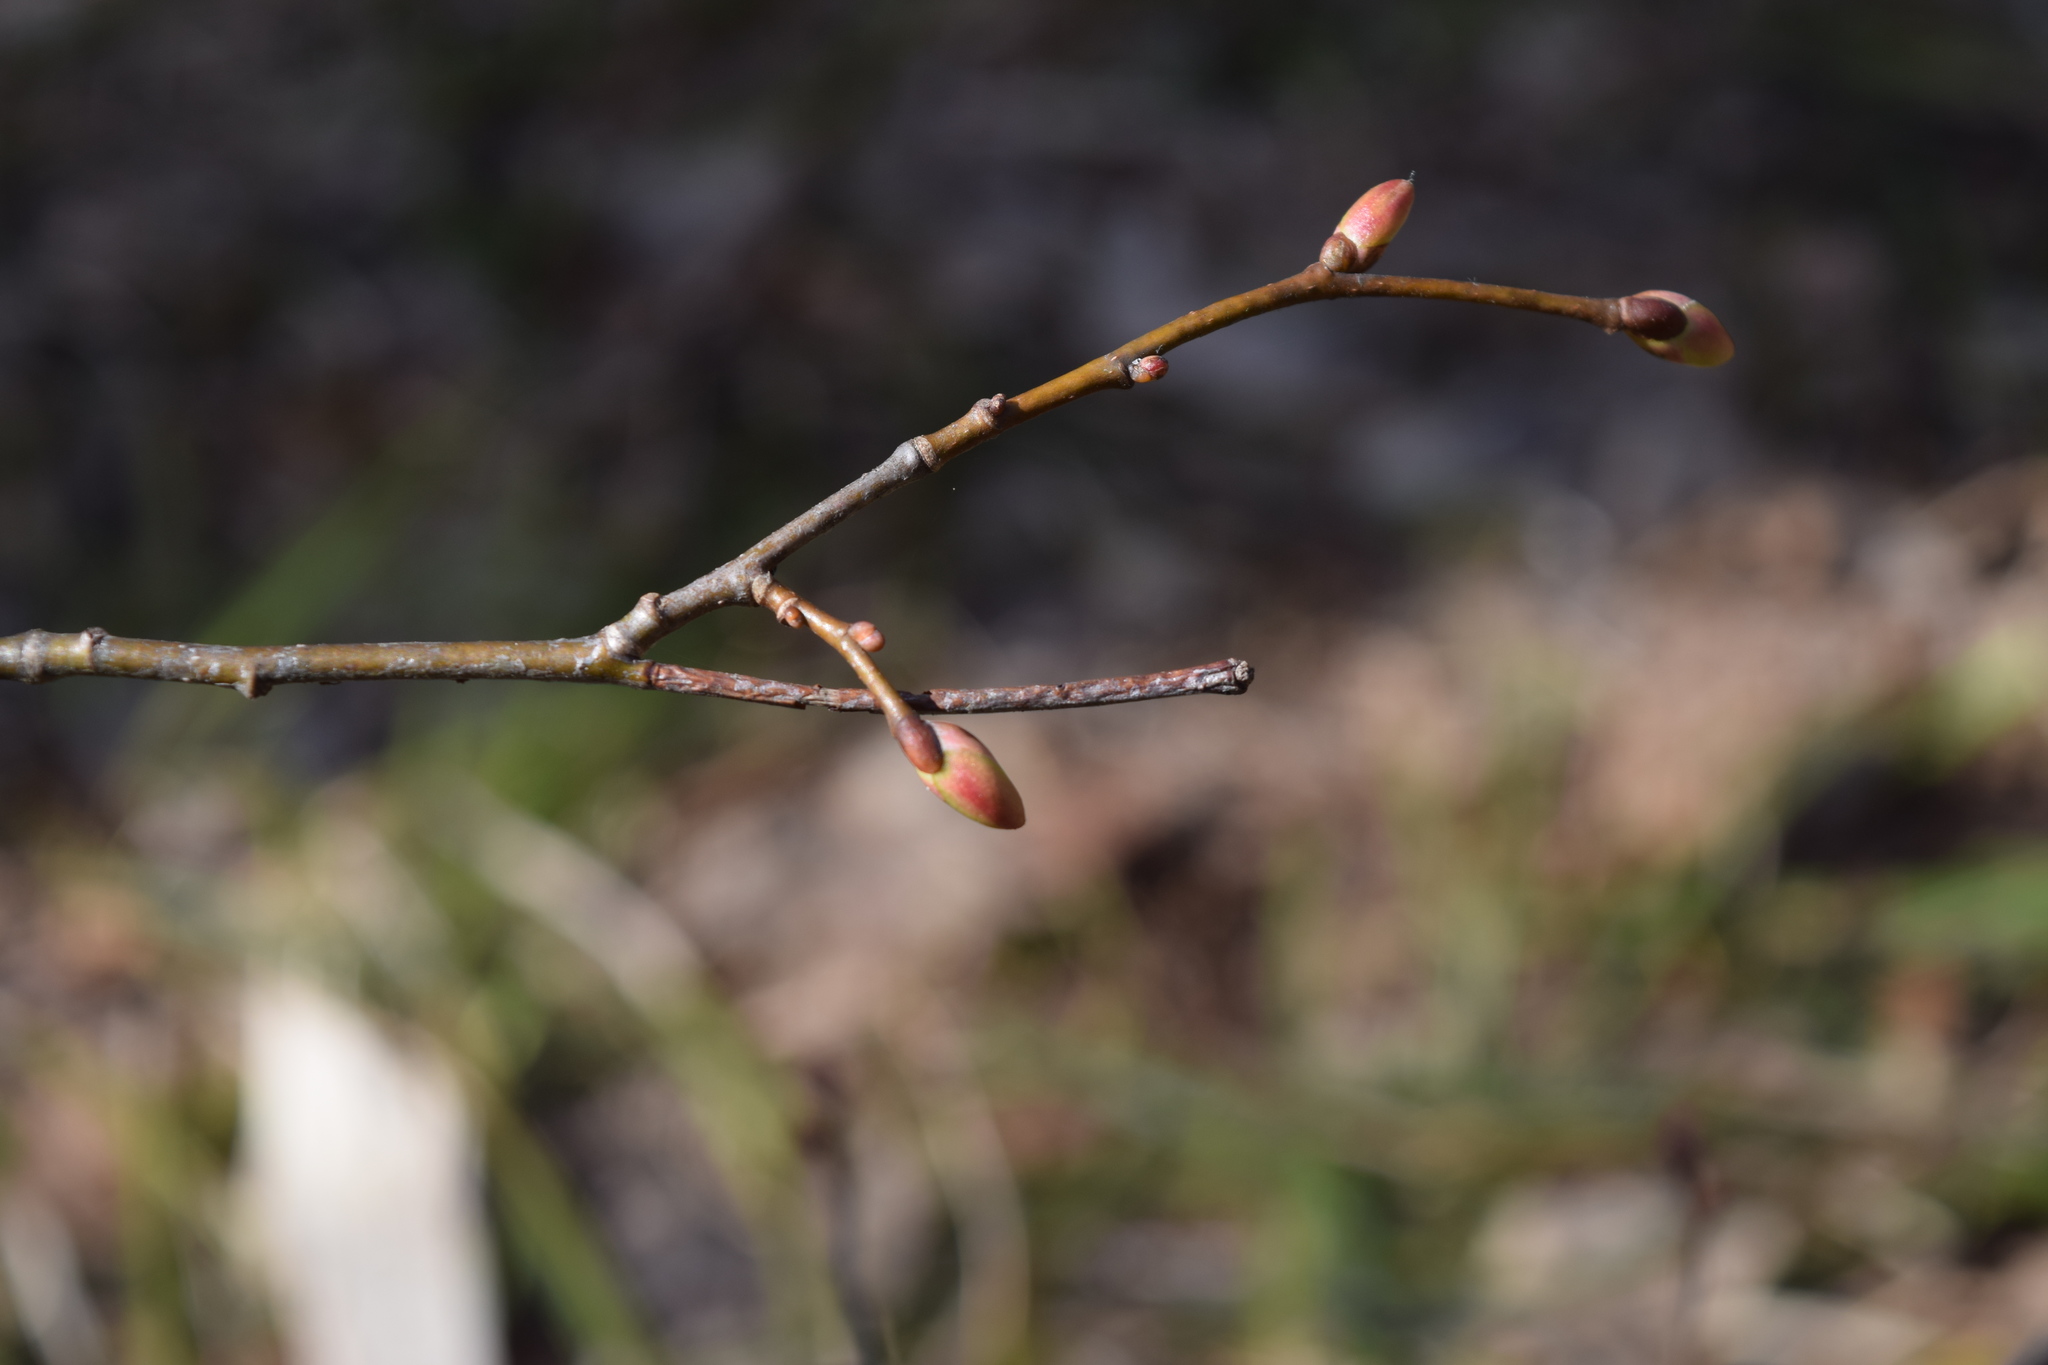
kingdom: Plantae
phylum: Tracheophyta
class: Magnoliopsida
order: Malvales
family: Malvaceae
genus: Tilia
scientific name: Tilia cordata
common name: Small-leaved lime
